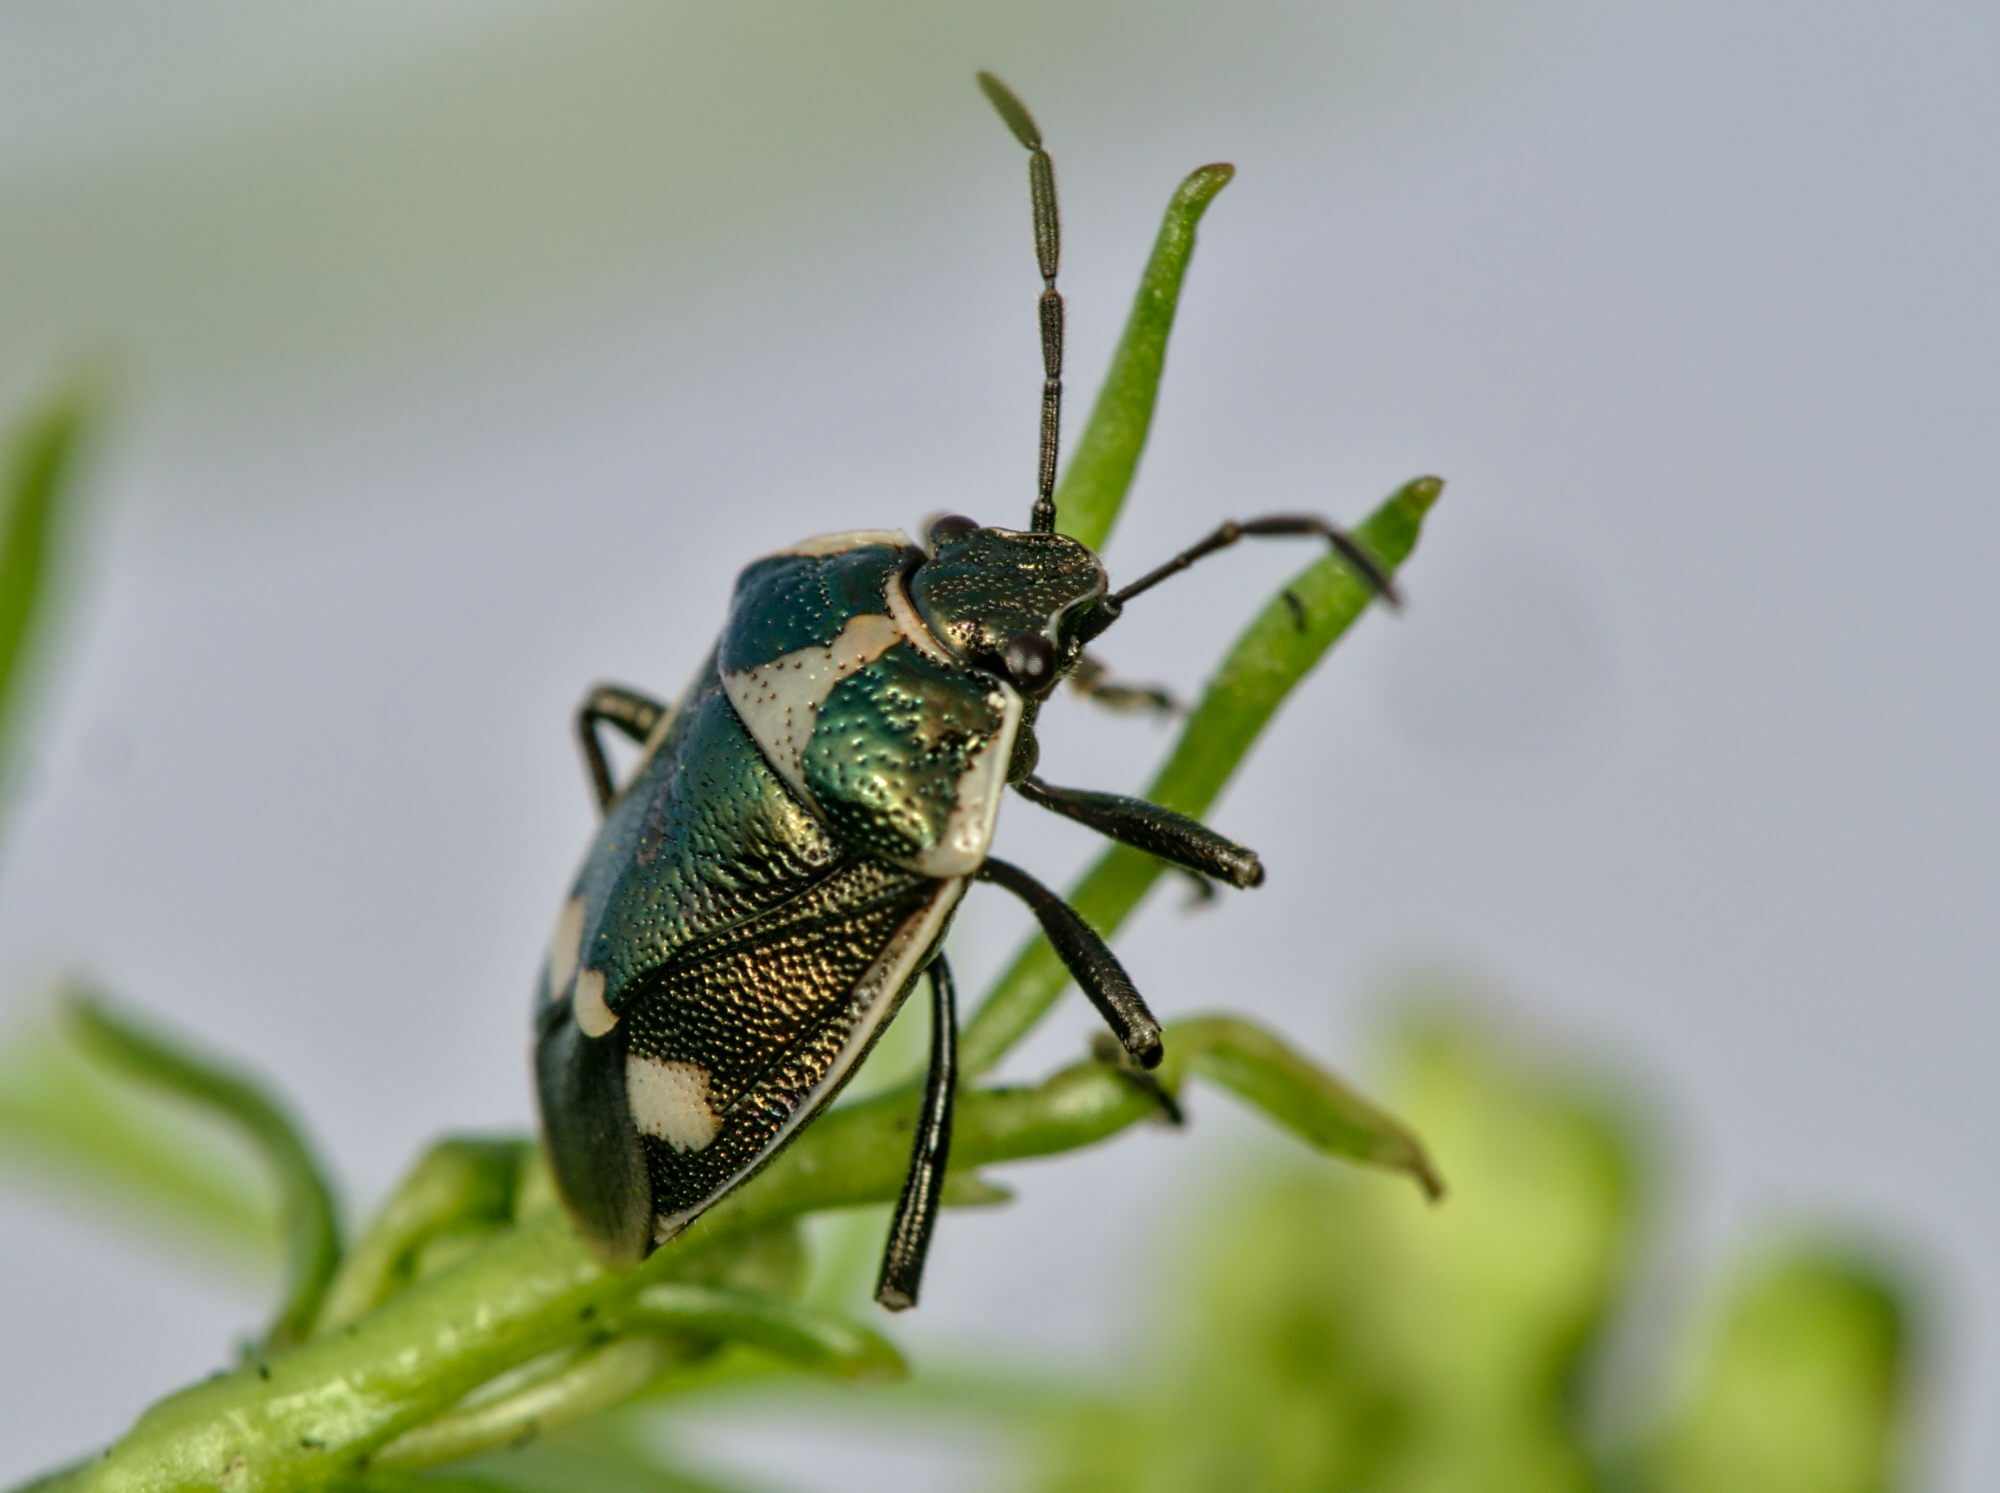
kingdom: Animalia
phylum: Arthropoda
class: Insecta
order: Hemiptera
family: Pentatomidae
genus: Eurydema
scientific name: Eurydema oleracea
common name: Cabbage bug
